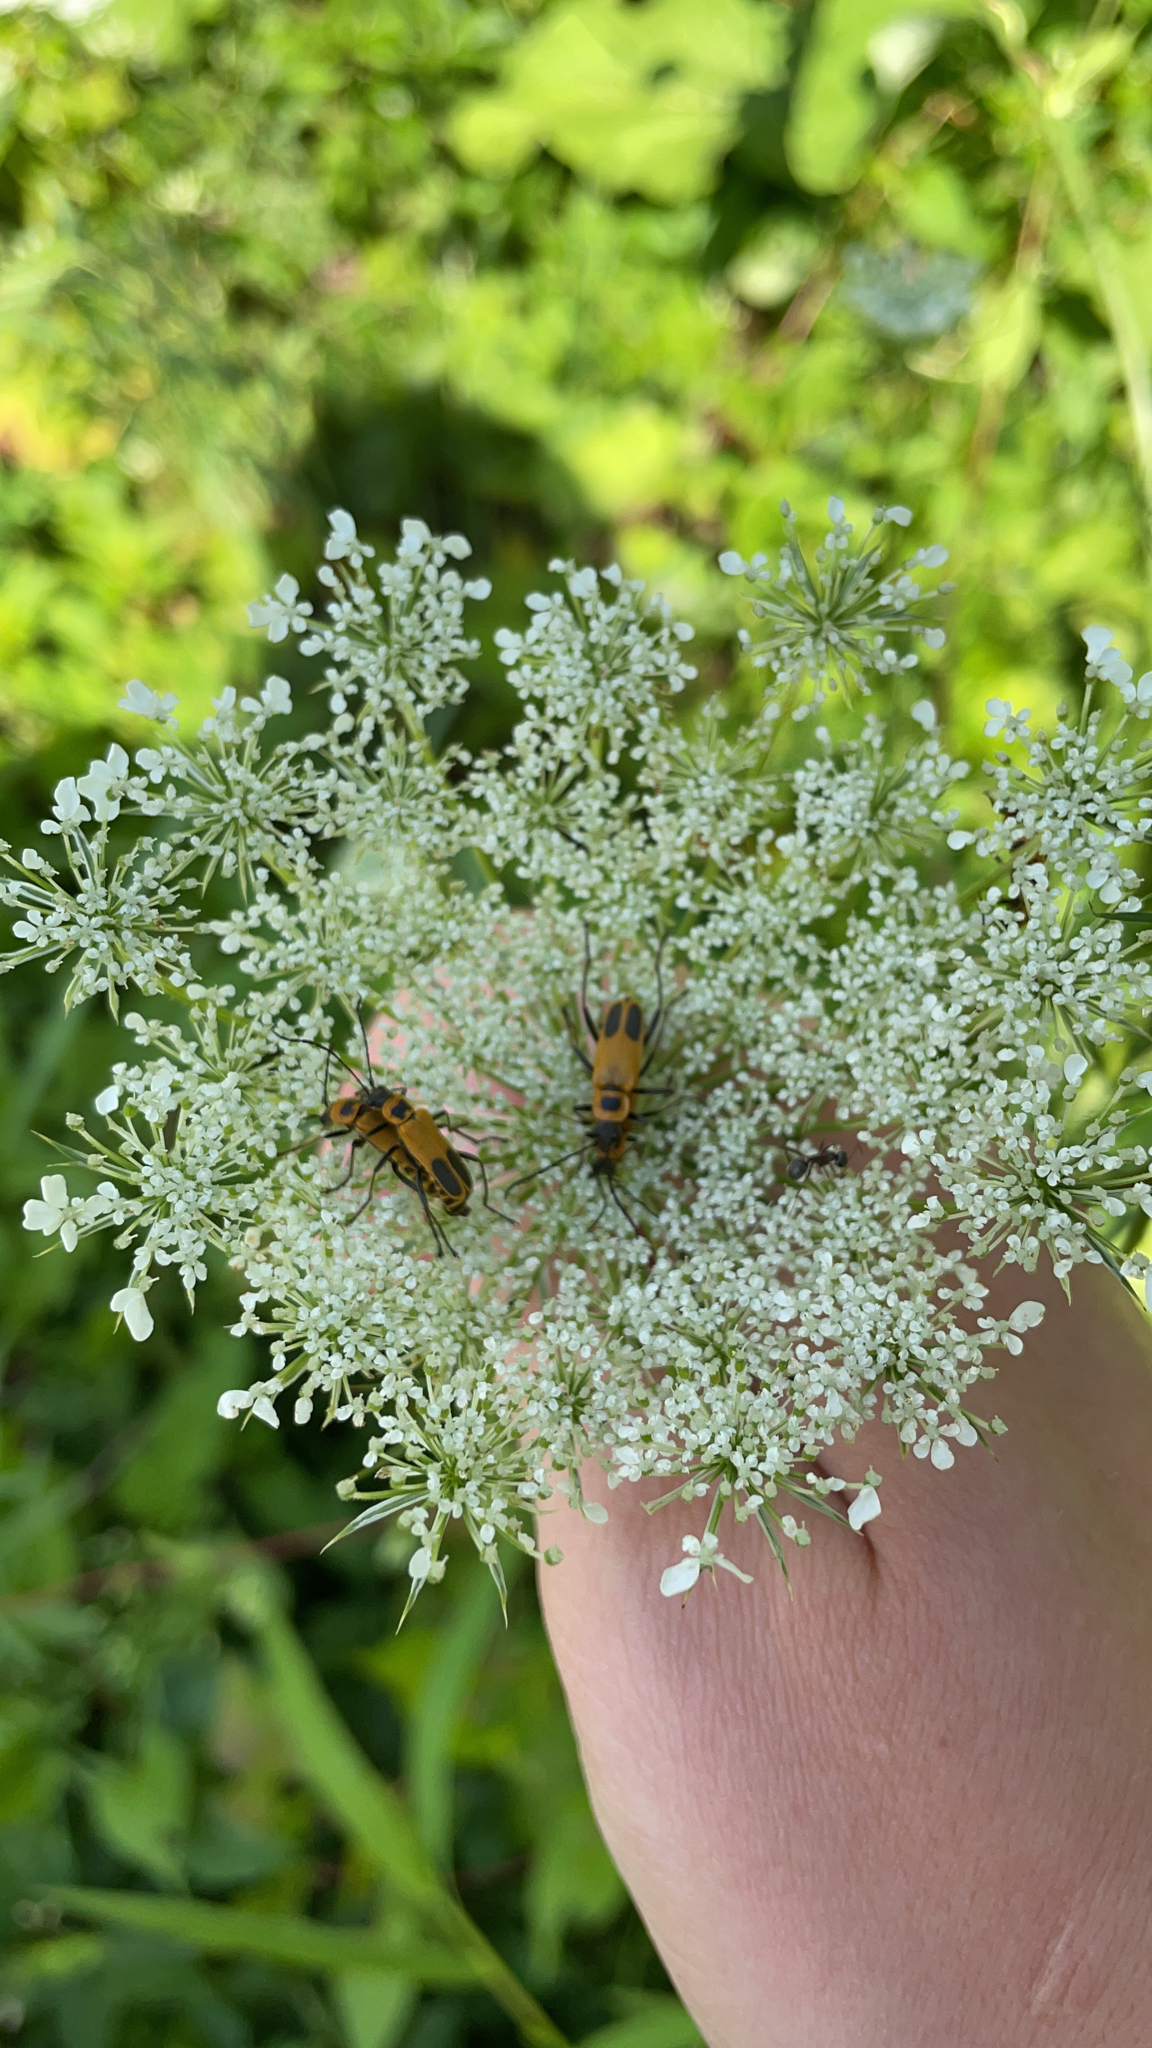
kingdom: Animalia
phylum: Arthropoda
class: Insecta
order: Coleoptera
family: Cantharidae
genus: Chauliognathus
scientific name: Chauliognathus pensylvanicus
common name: Goldenrod soldier beetle
